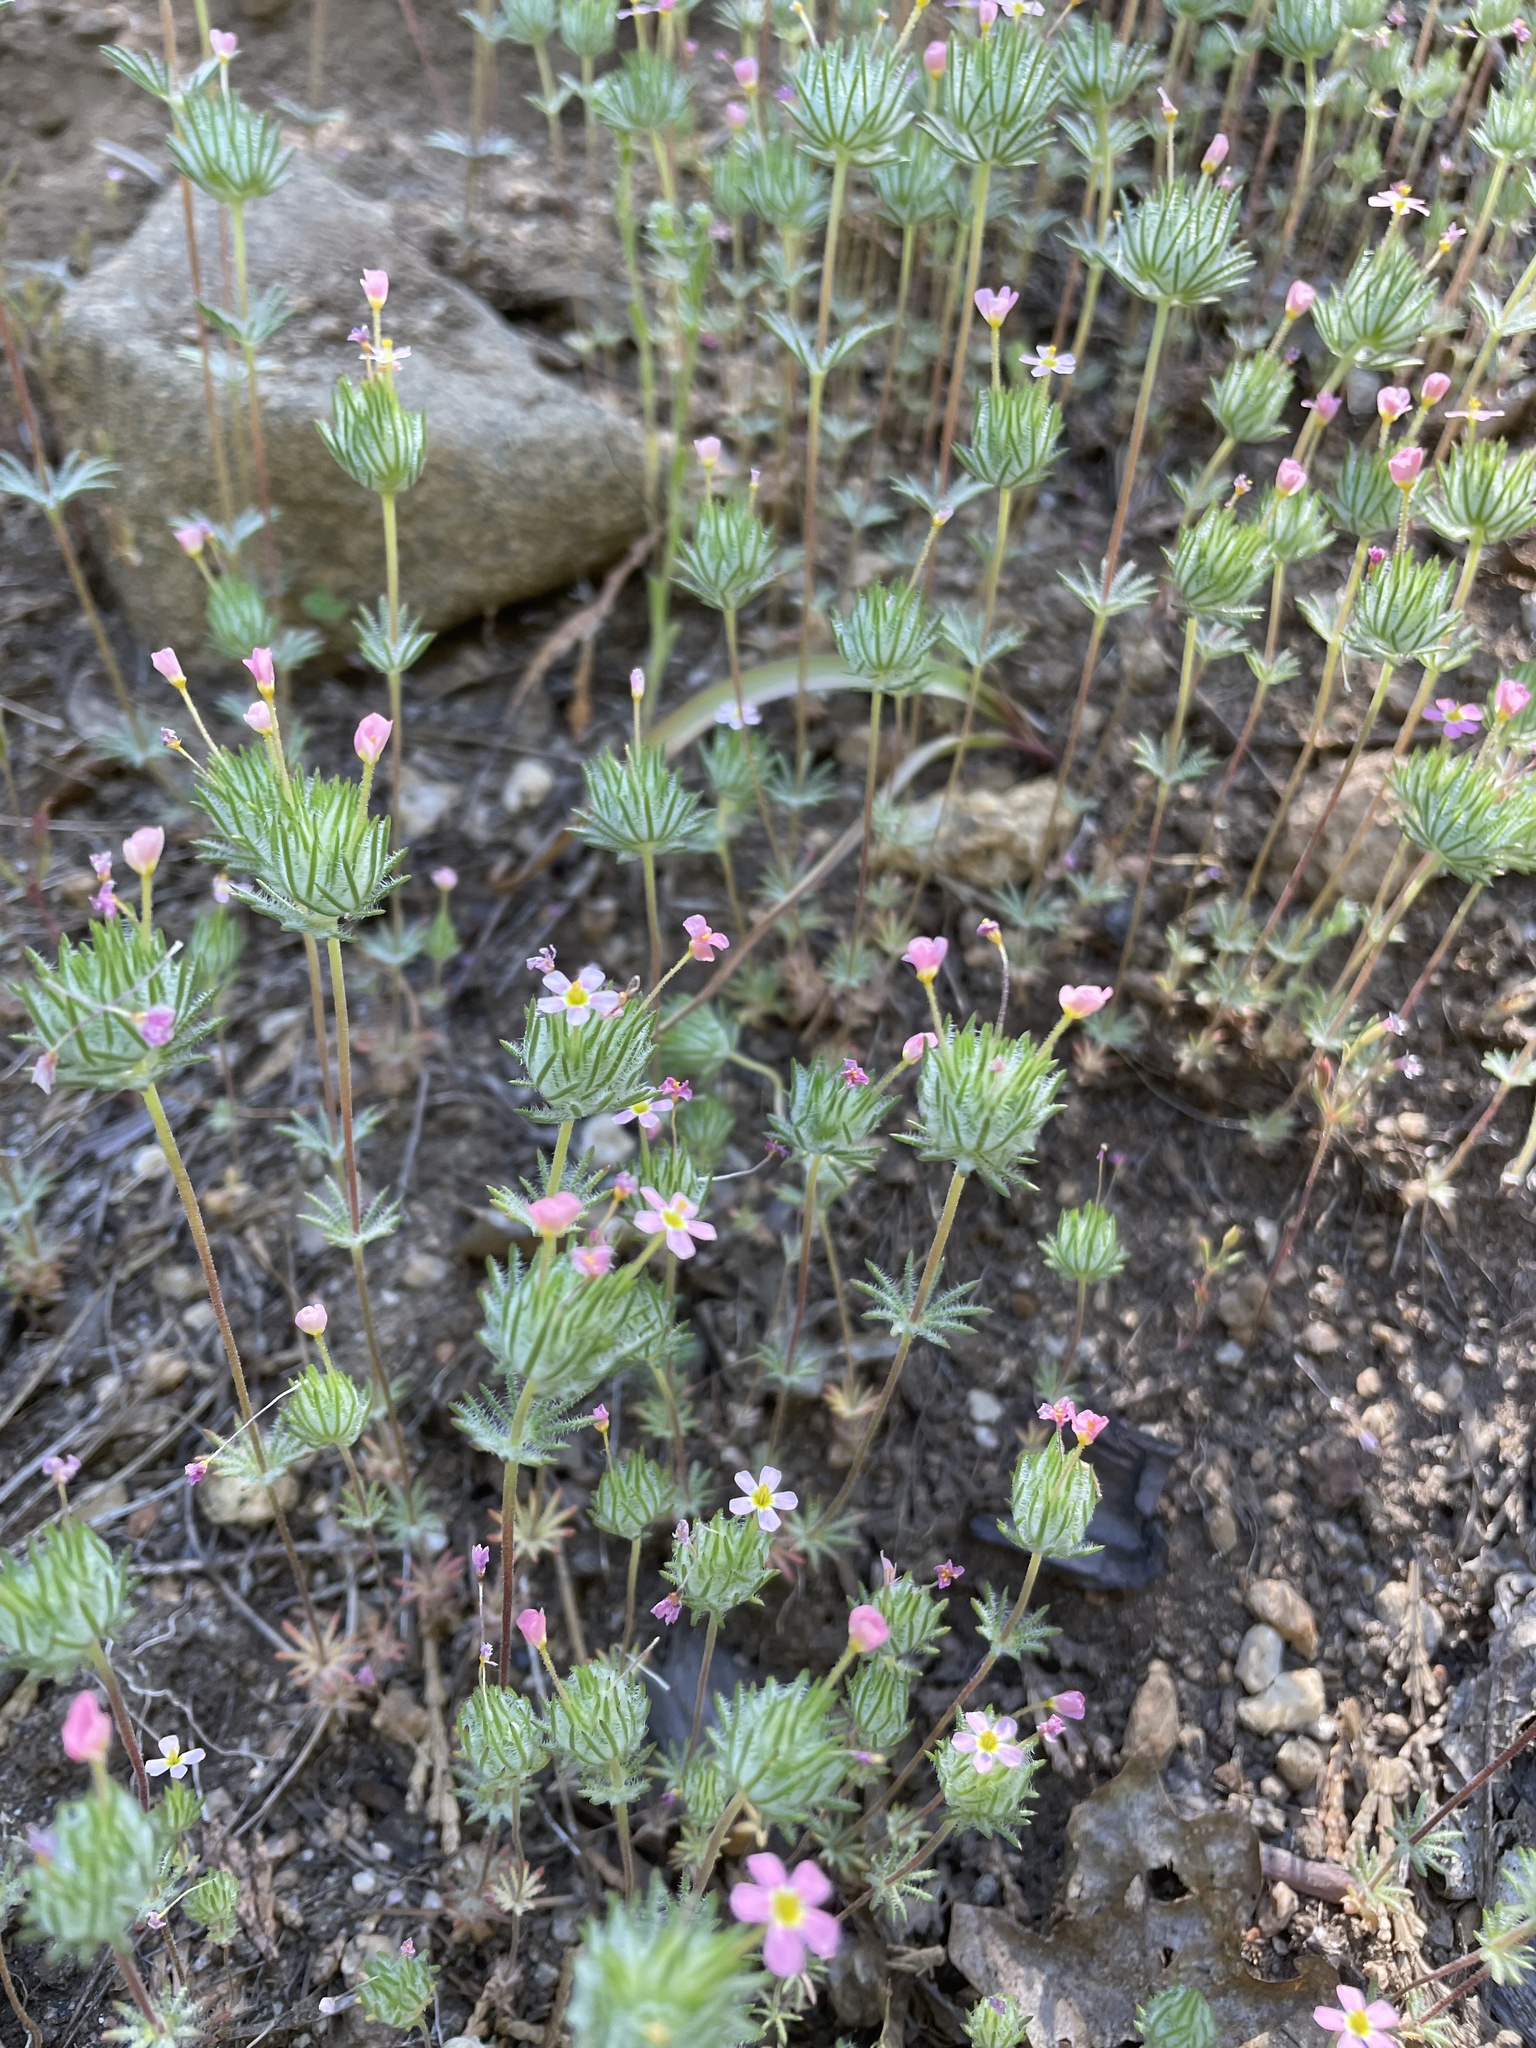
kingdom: Plantae
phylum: Tracheophyta
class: Magnoliopsida
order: Ericales
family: Polemoniaceae
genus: Leptosiphon
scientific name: Leptosiphon ciliatus
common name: Whiskerbrush
